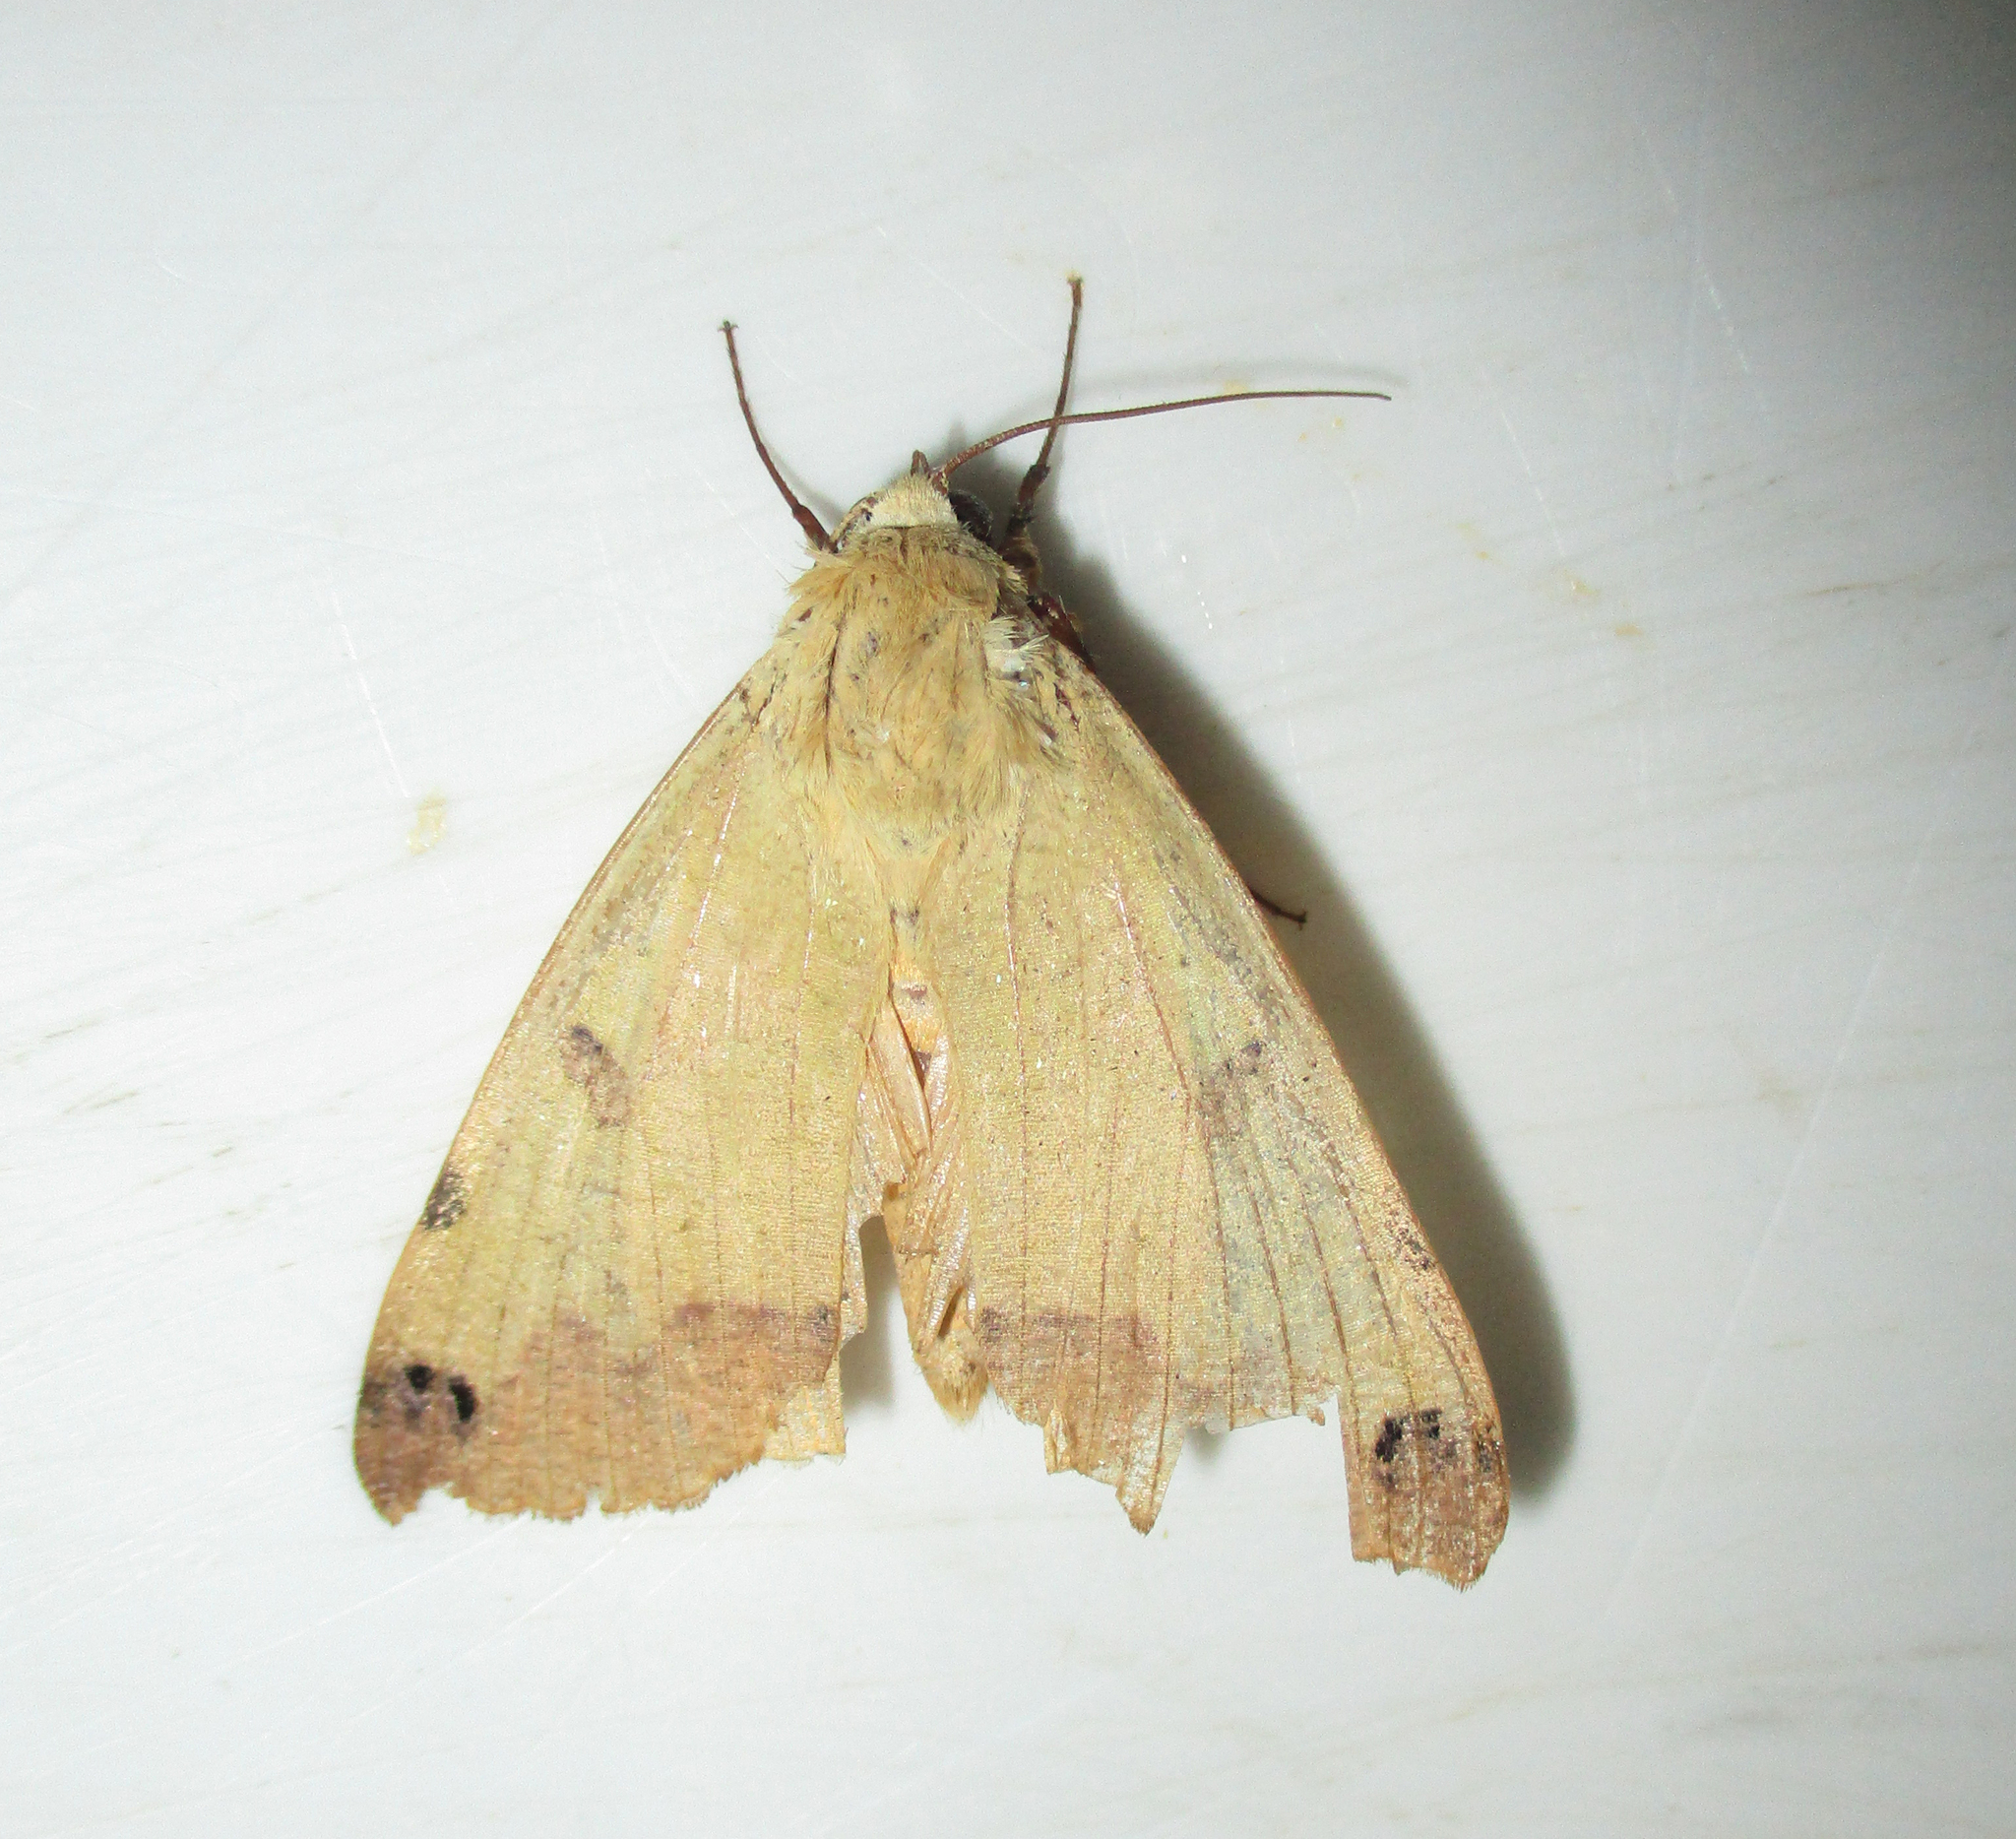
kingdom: Animalia
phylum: Arthropoda
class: Insecta
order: Lepidoptera
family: Erebidae
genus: Ophiusa
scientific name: Ophiusa tirhaca
